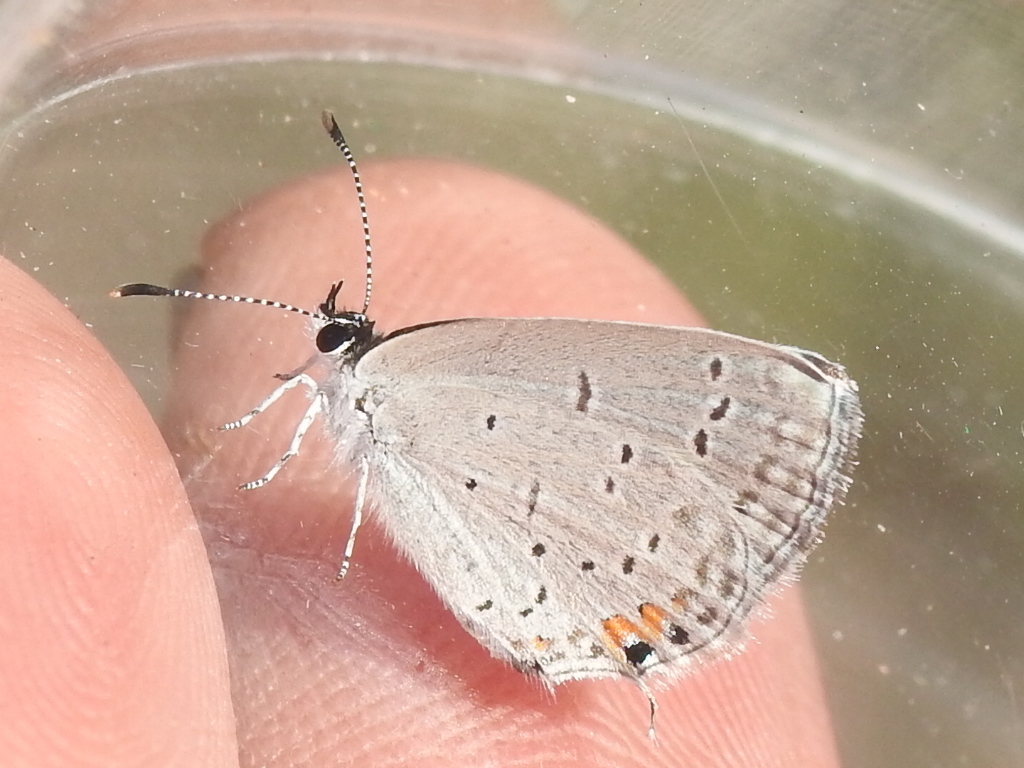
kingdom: Animalia
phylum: Arthropoda
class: Insecta
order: Lepidoptera
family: Lycaenidae
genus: Elkalyce
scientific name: Elkalyce comyntas
